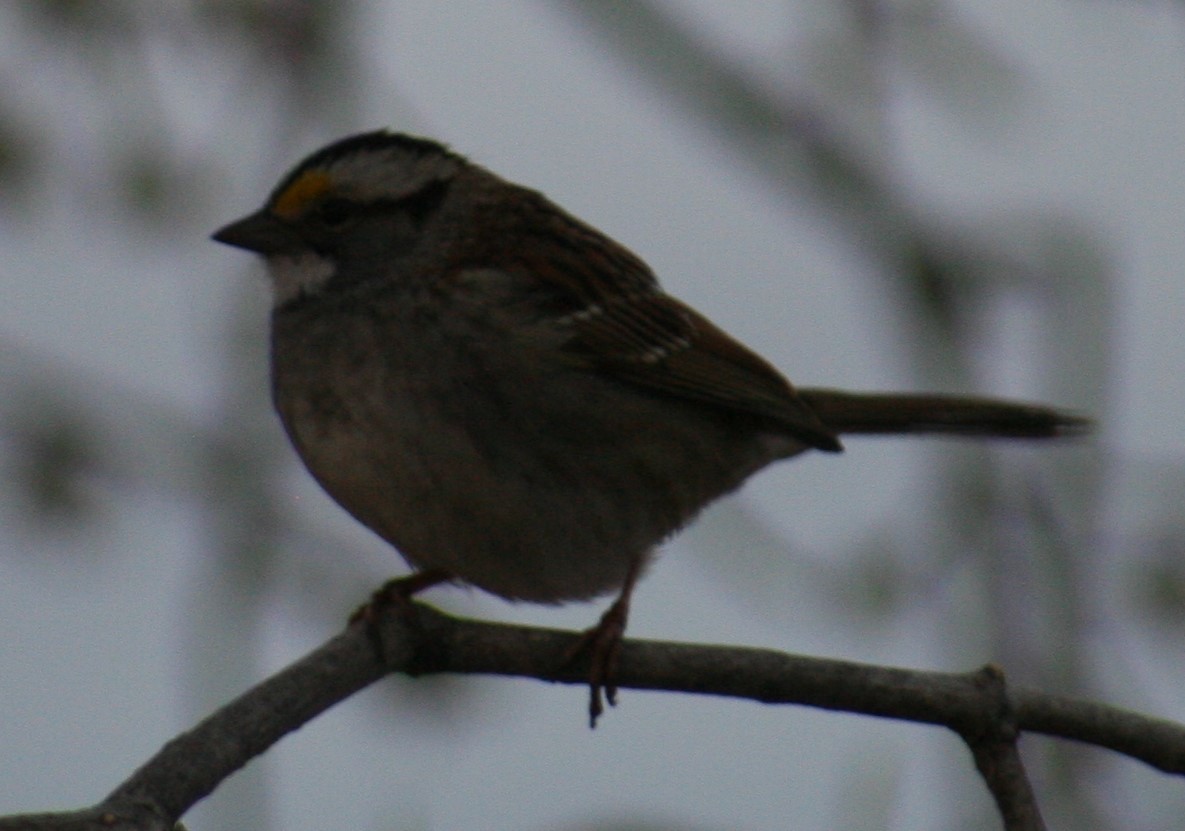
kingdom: Animalia
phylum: Chordata
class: Aves
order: Passeriformes
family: Passerellidae
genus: Zonotrichia
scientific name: Zonotrichia albicollis
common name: White-throated sparrow
